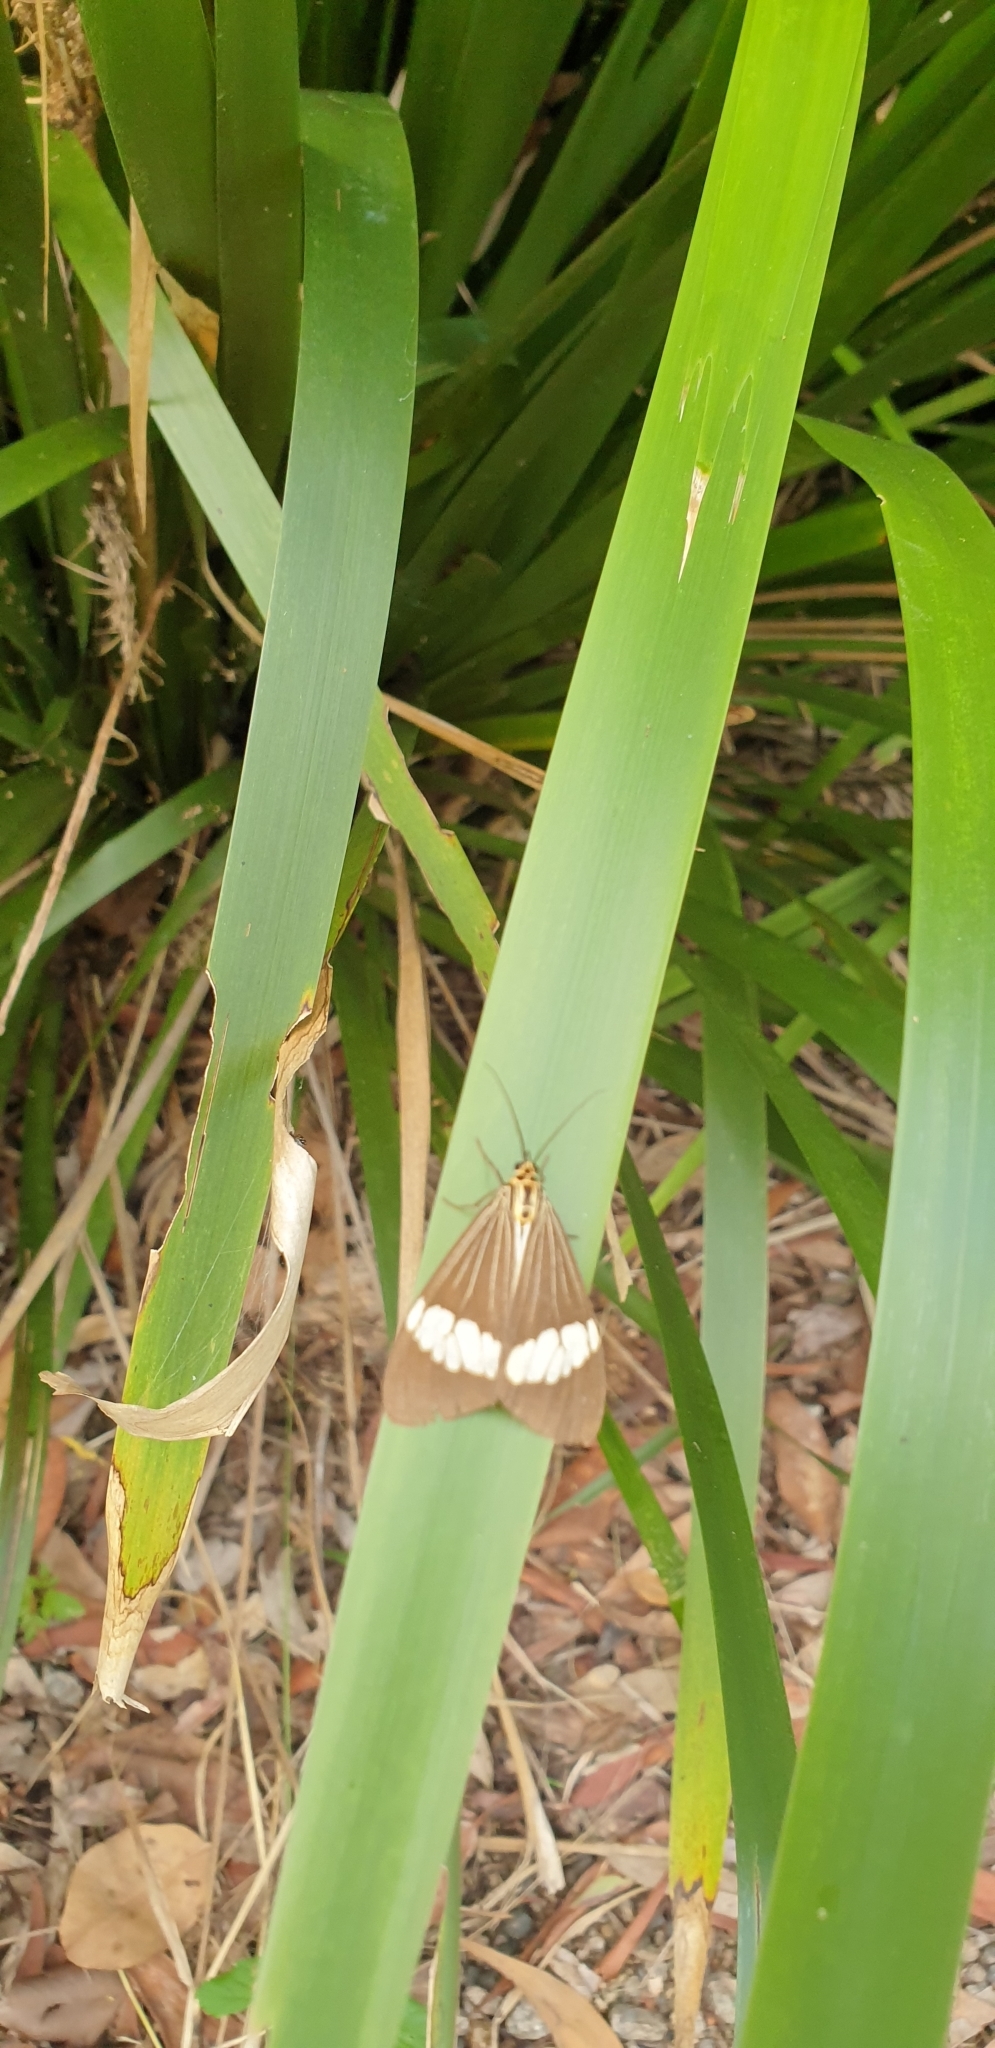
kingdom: Animalia
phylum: Arthropoda
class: Insecta
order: Lepidoptera
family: Erebidae
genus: Nyctemera
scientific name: Nyctemera baulus
